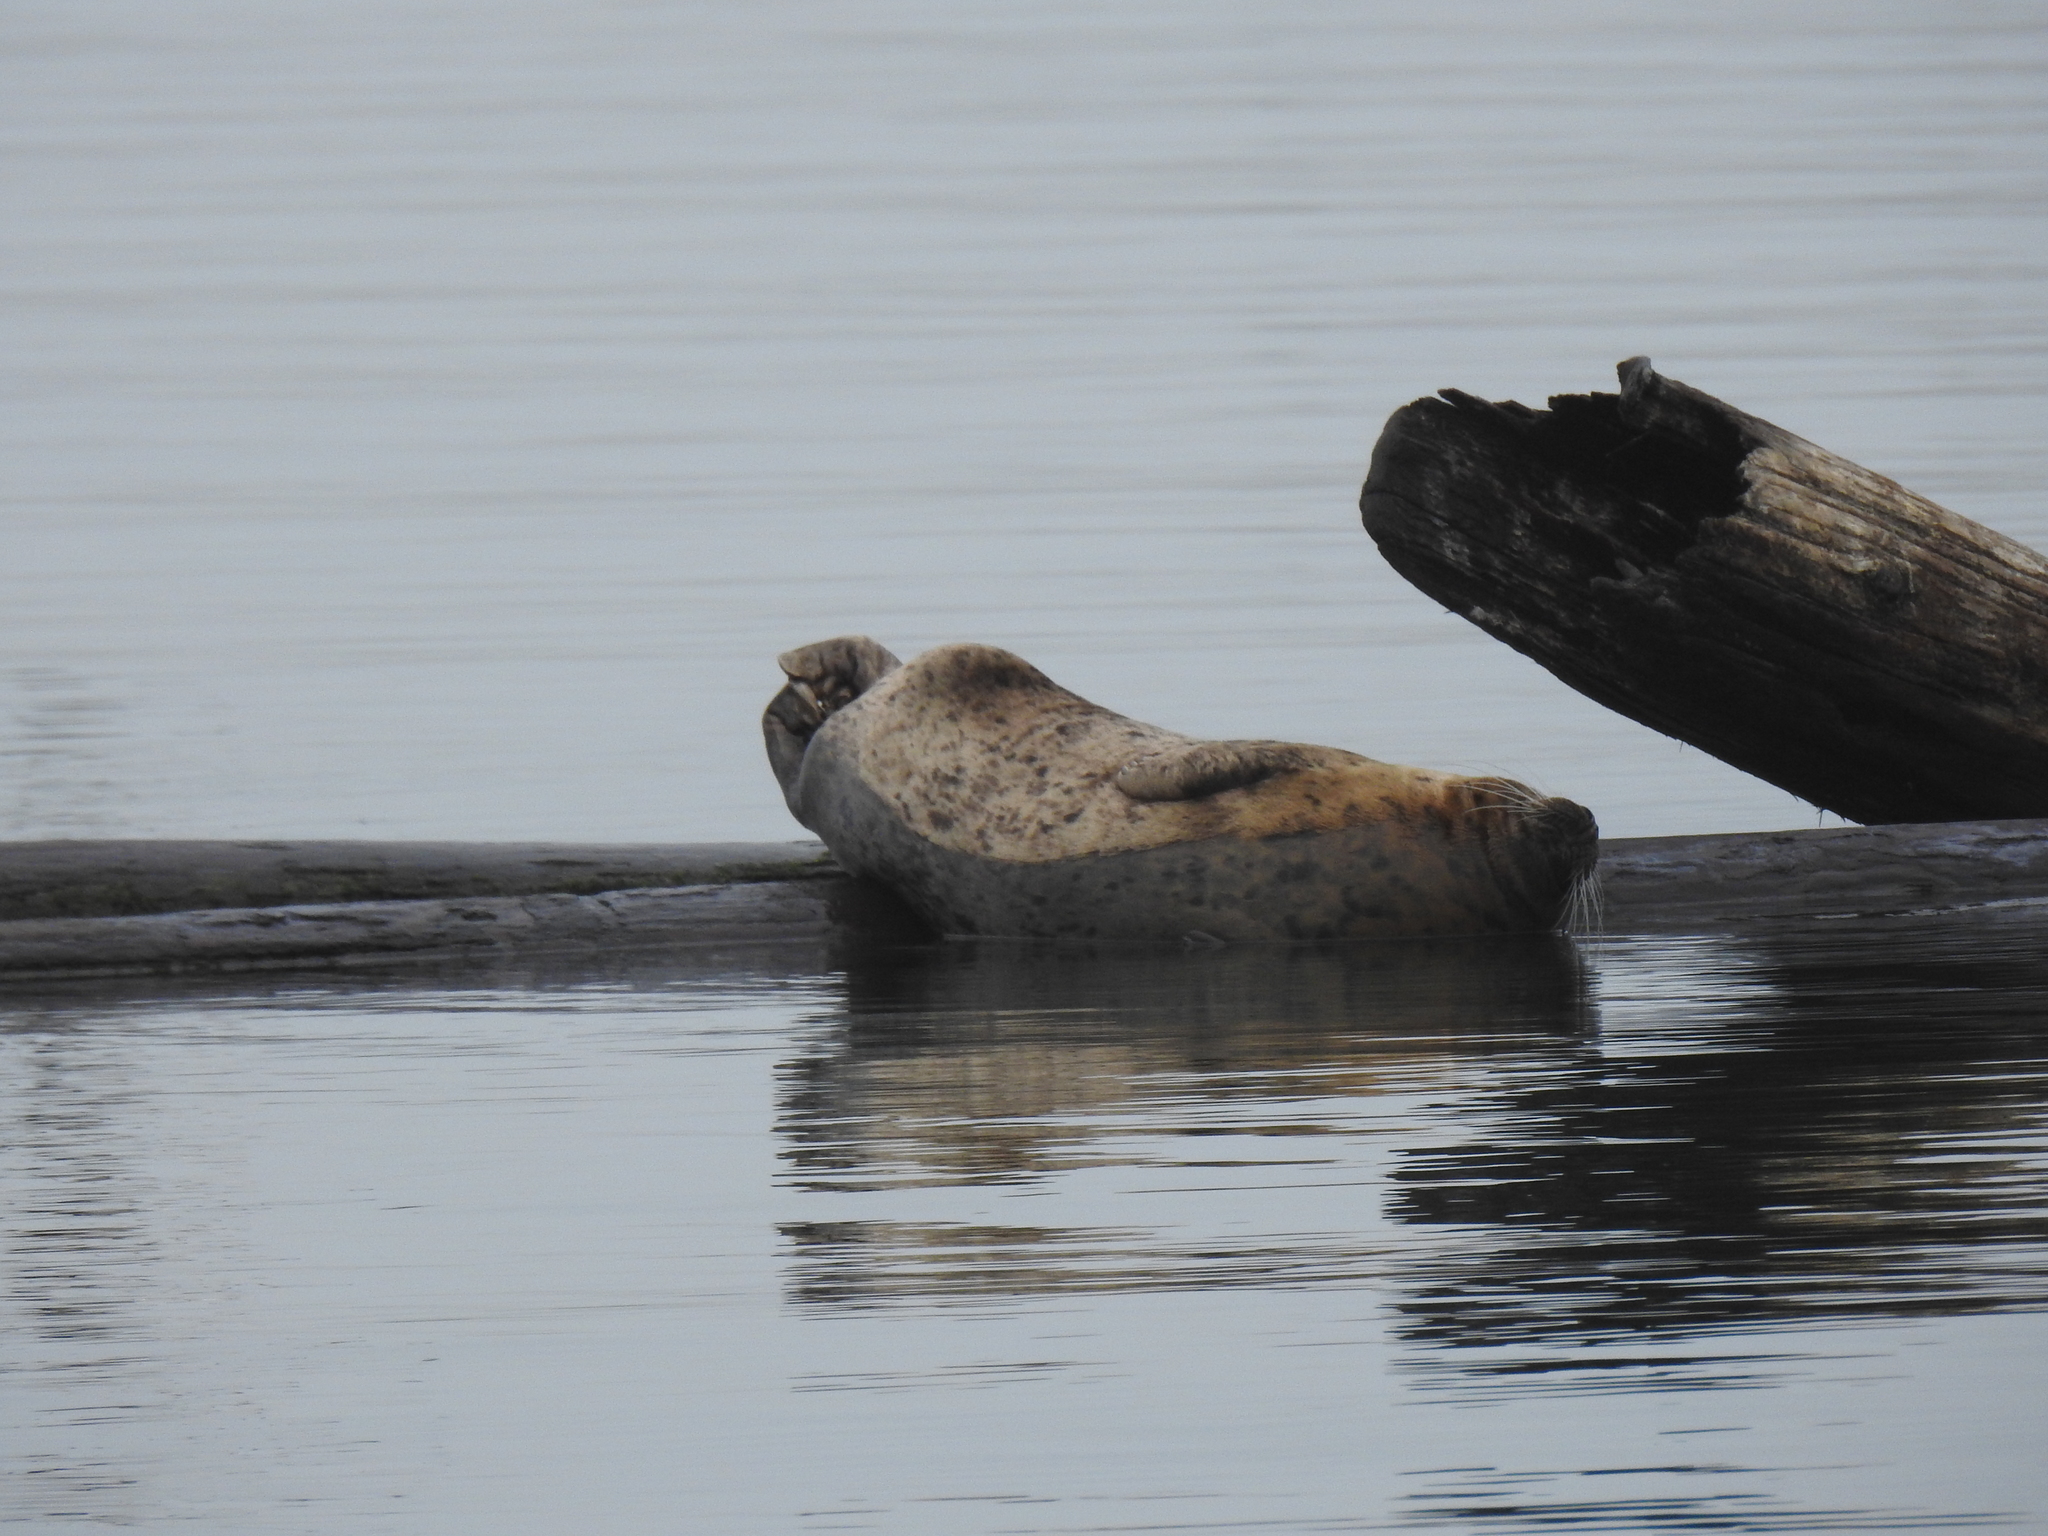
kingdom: Animalia
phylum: Chordata
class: Mammalia
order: Carnivora
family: Phocidae
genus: Phoca
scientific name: Phoca vitulina
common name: Harbor seal
